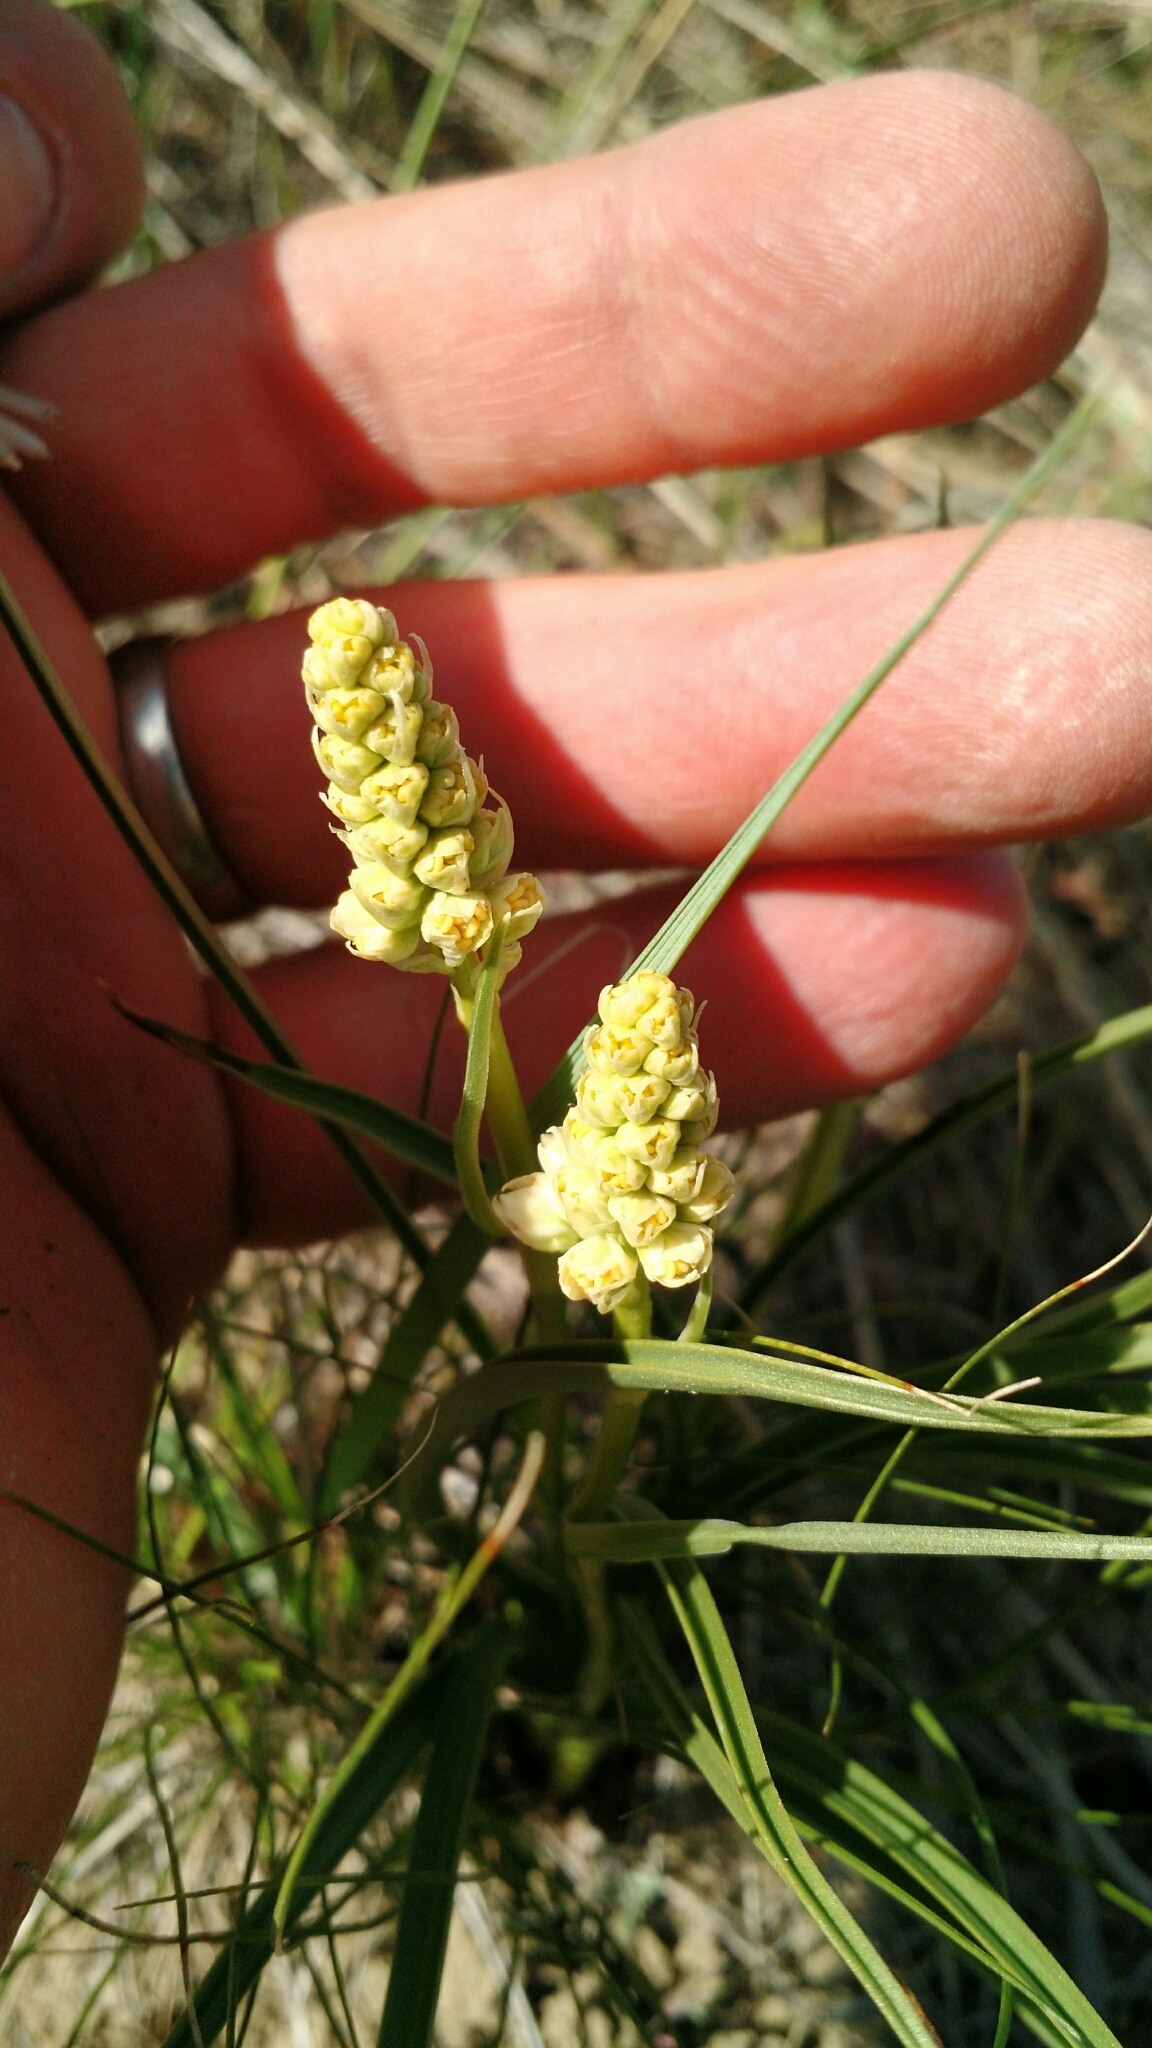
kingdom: Plantae
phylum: Tracheophyta
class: Liliopsida
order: Liliales
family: Melanthiaceae
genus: Toxicoscordion
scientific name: Toxicoscordion venenosum
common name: Meadow death camas
